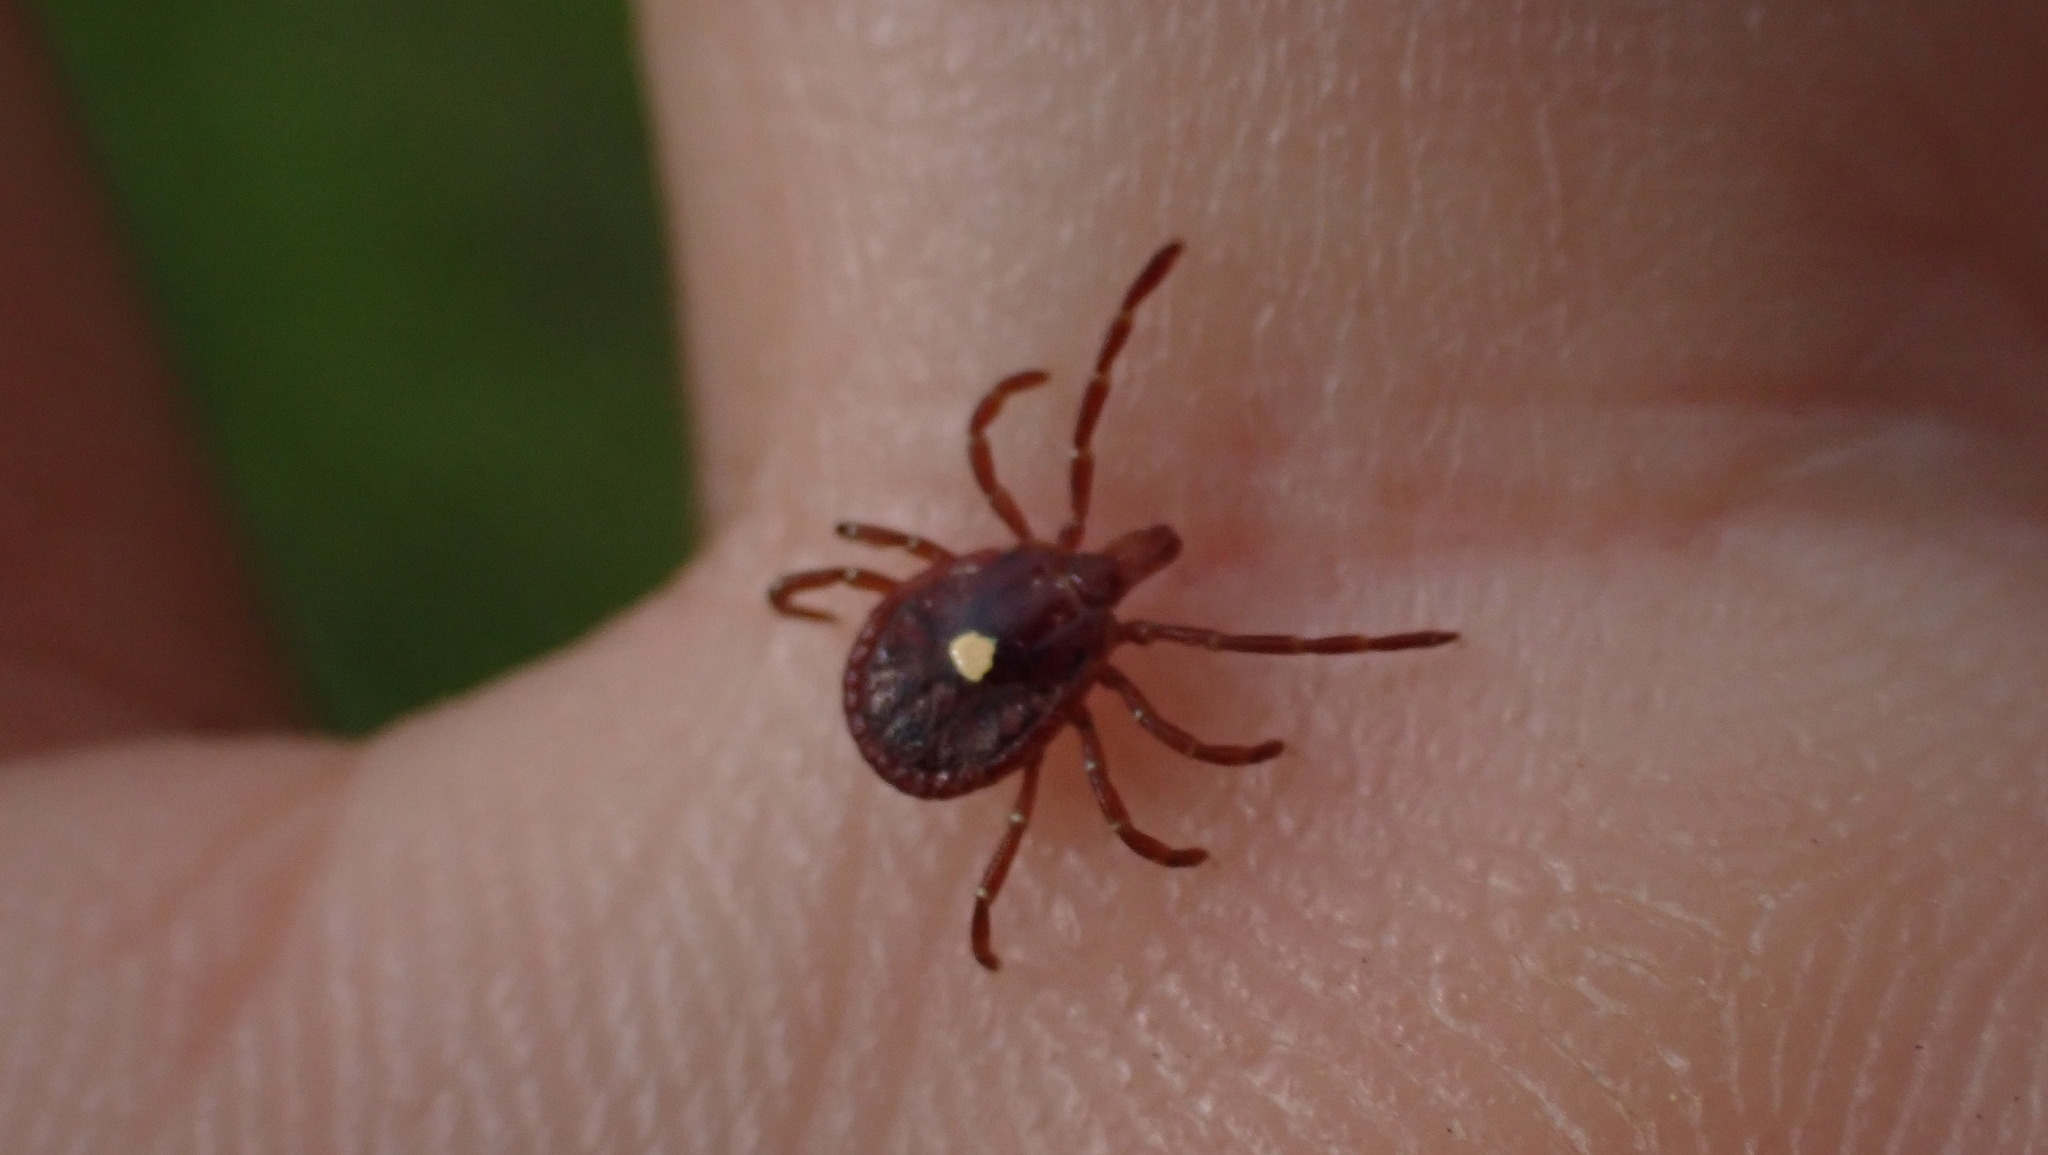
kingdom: Animalia
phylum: Arthropoda
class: Arachnida
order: Ixodida
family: Ixodidae
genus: Amblyomma
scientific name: Amblyomma americanum
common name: Lone star tick
